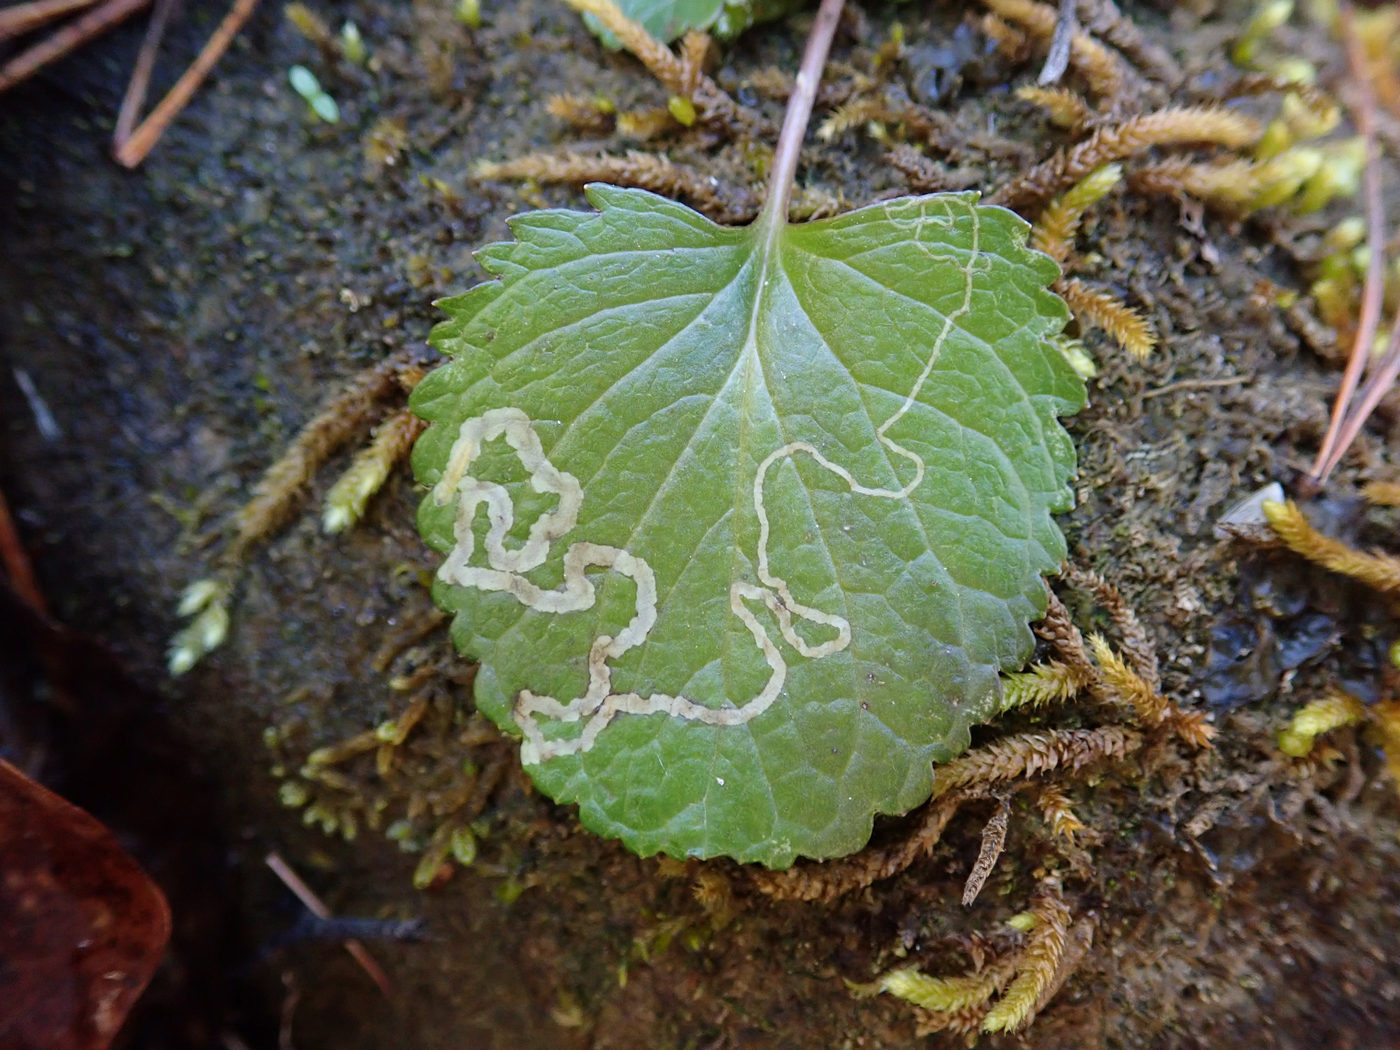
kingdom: Animalia
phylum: Arthropoda
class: Insecta
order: Lepidoptera
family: Gracillariidae
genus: Phyllocnistis
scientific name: Phyllocnistis insignis
